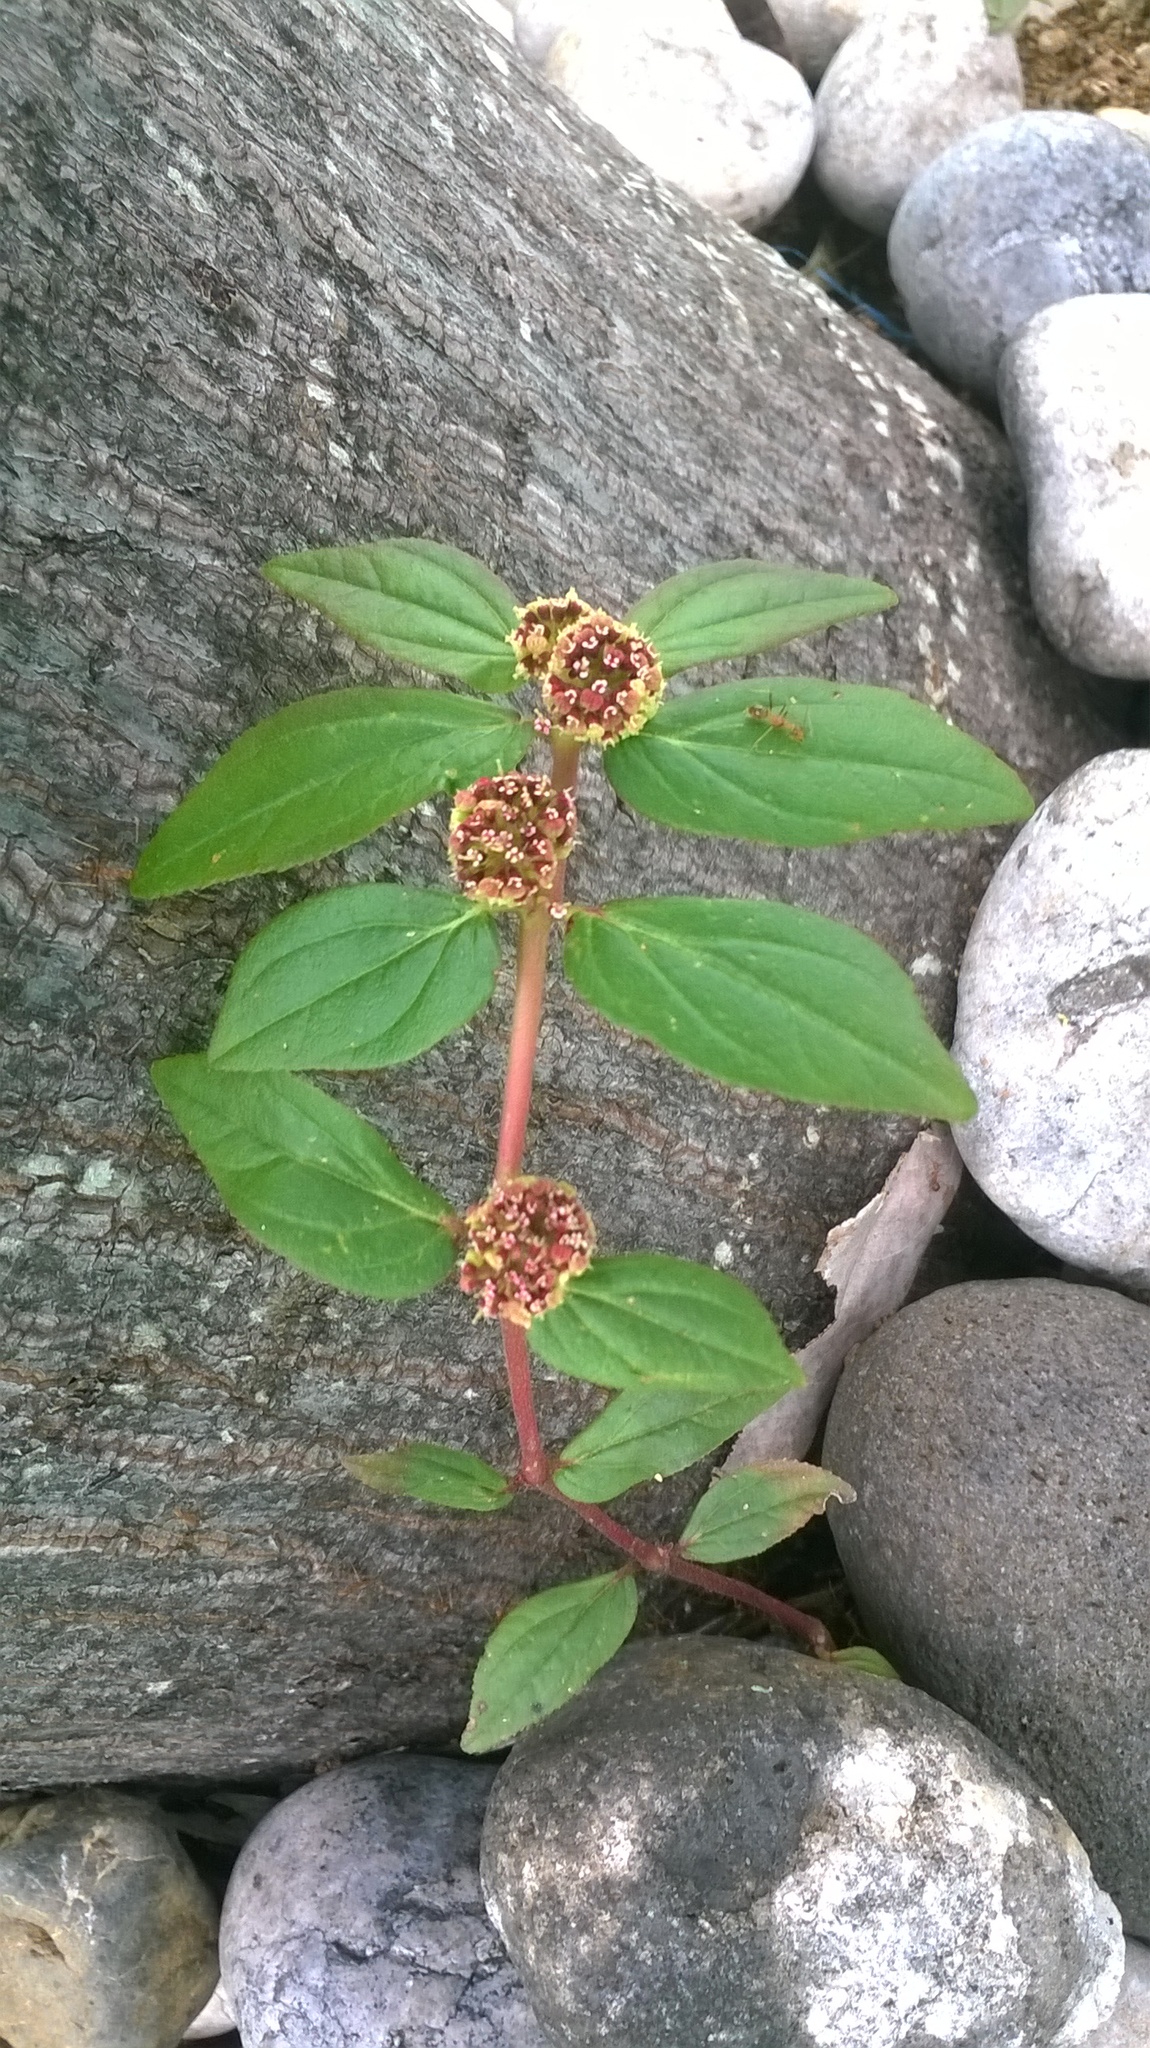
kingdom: Plantae
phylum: Tracheophyta
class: Magnoliopsida
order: Malpighiales
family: Euphorbiaceae
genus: Euphorbia
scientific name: Euphorbia hirta
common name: Pillpod sandmat
